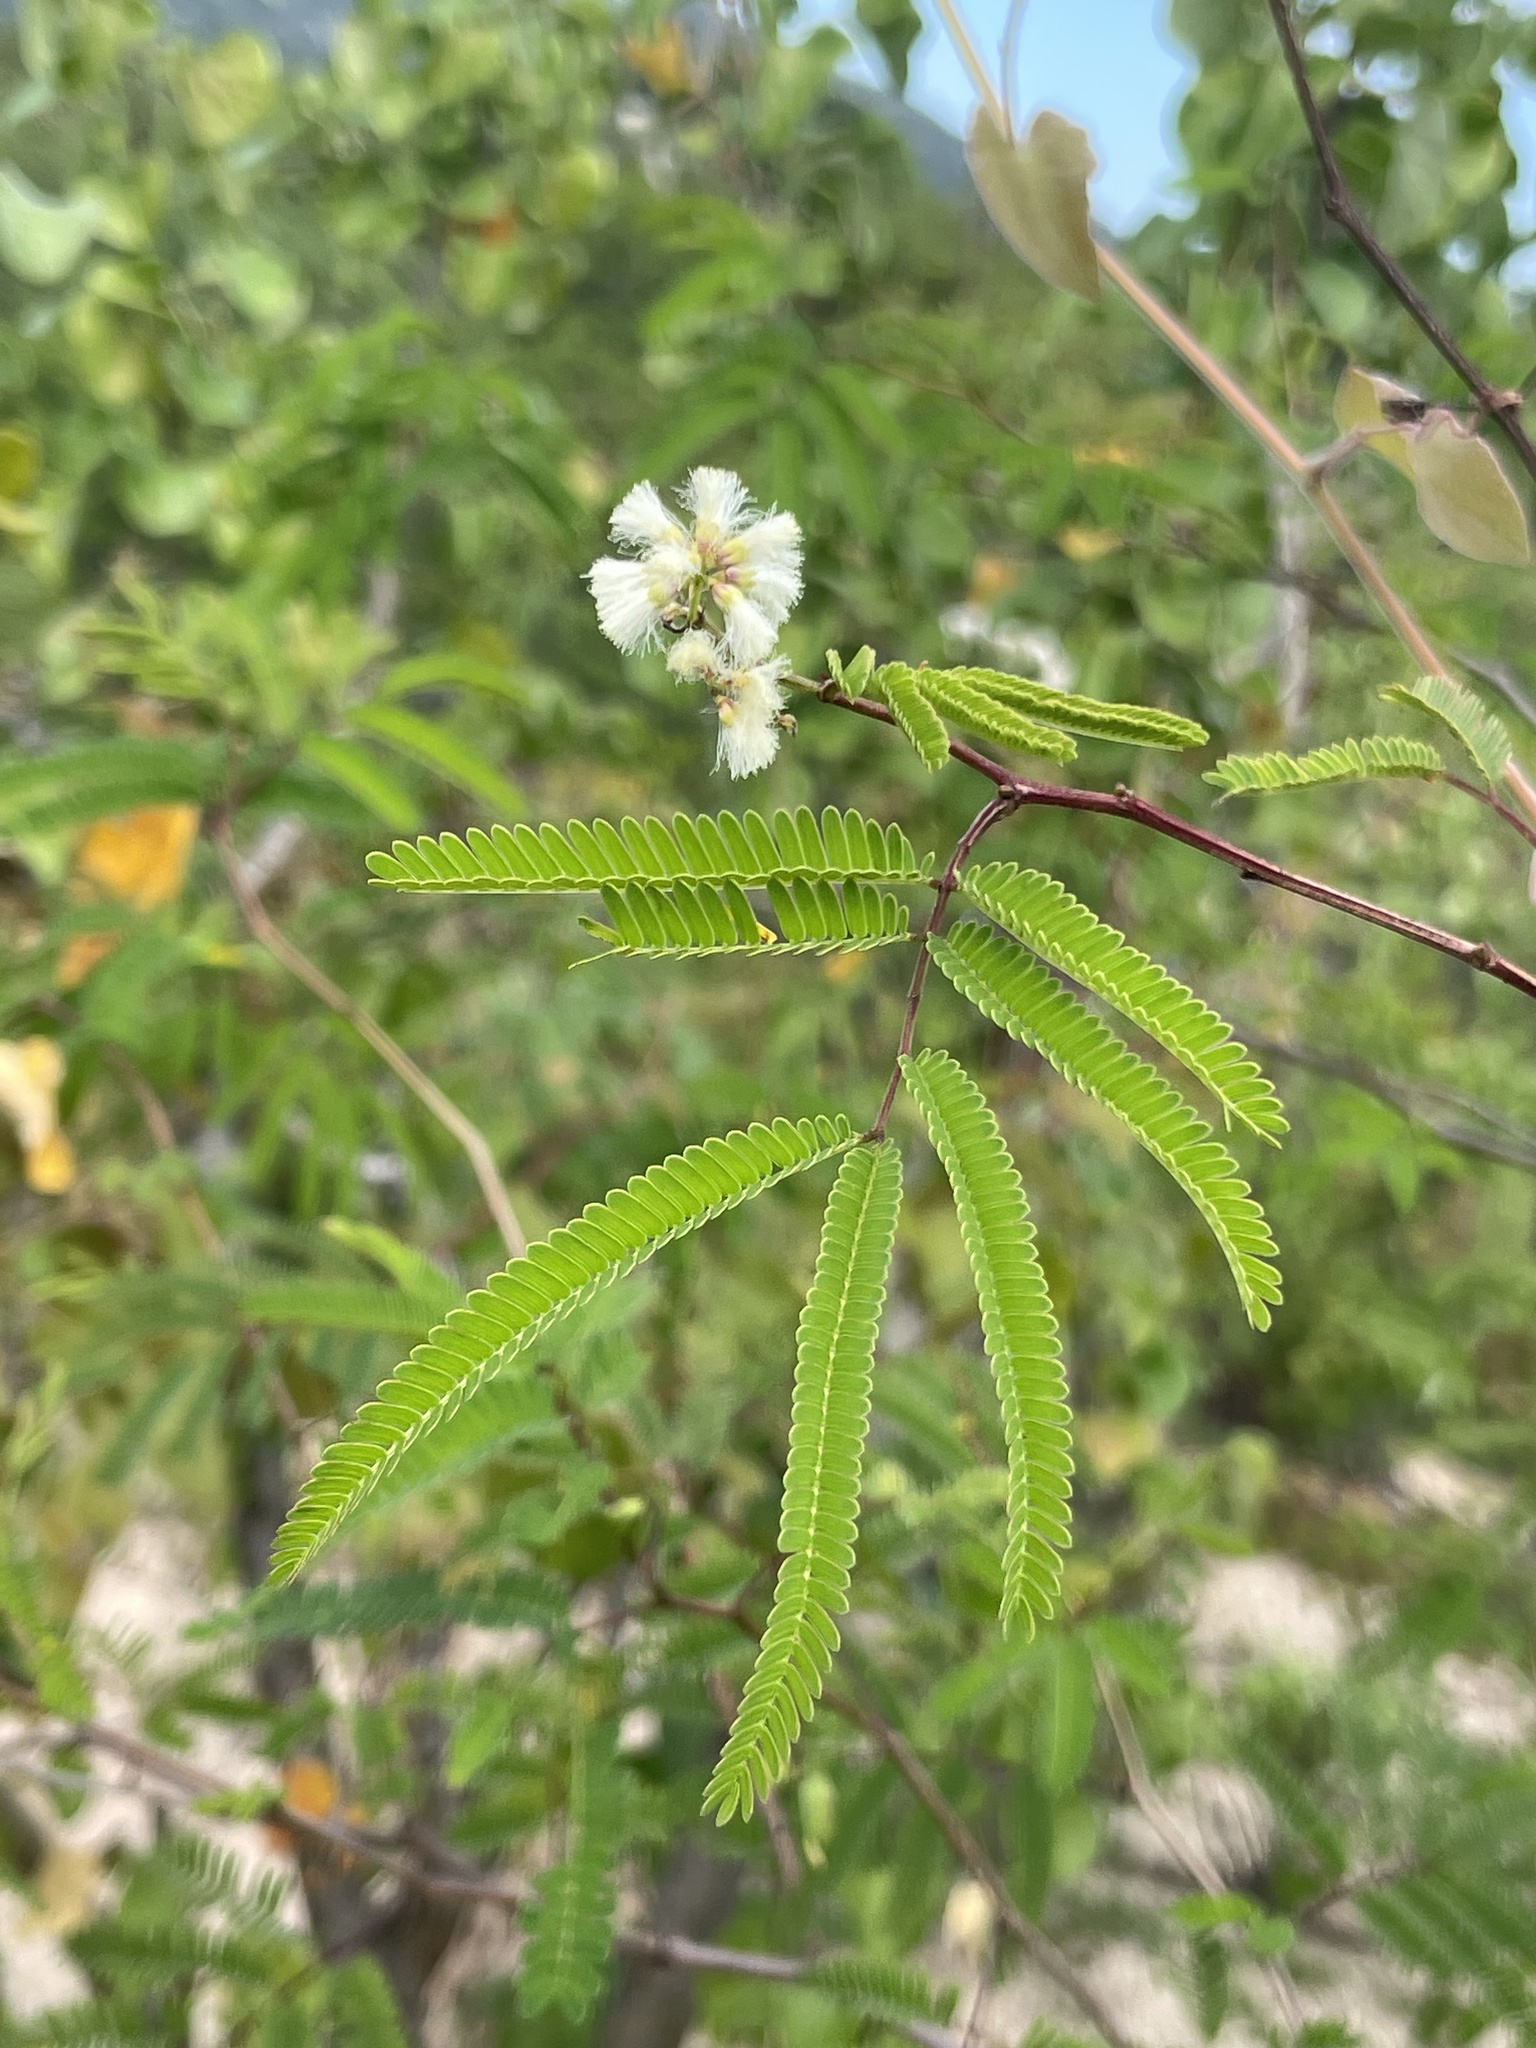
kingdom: Plantae
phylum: Tracheophyta
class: Magnoliopsida
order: Fabales
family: Fabaceae
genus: Acaciella
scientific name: Acaciella goldmanii
